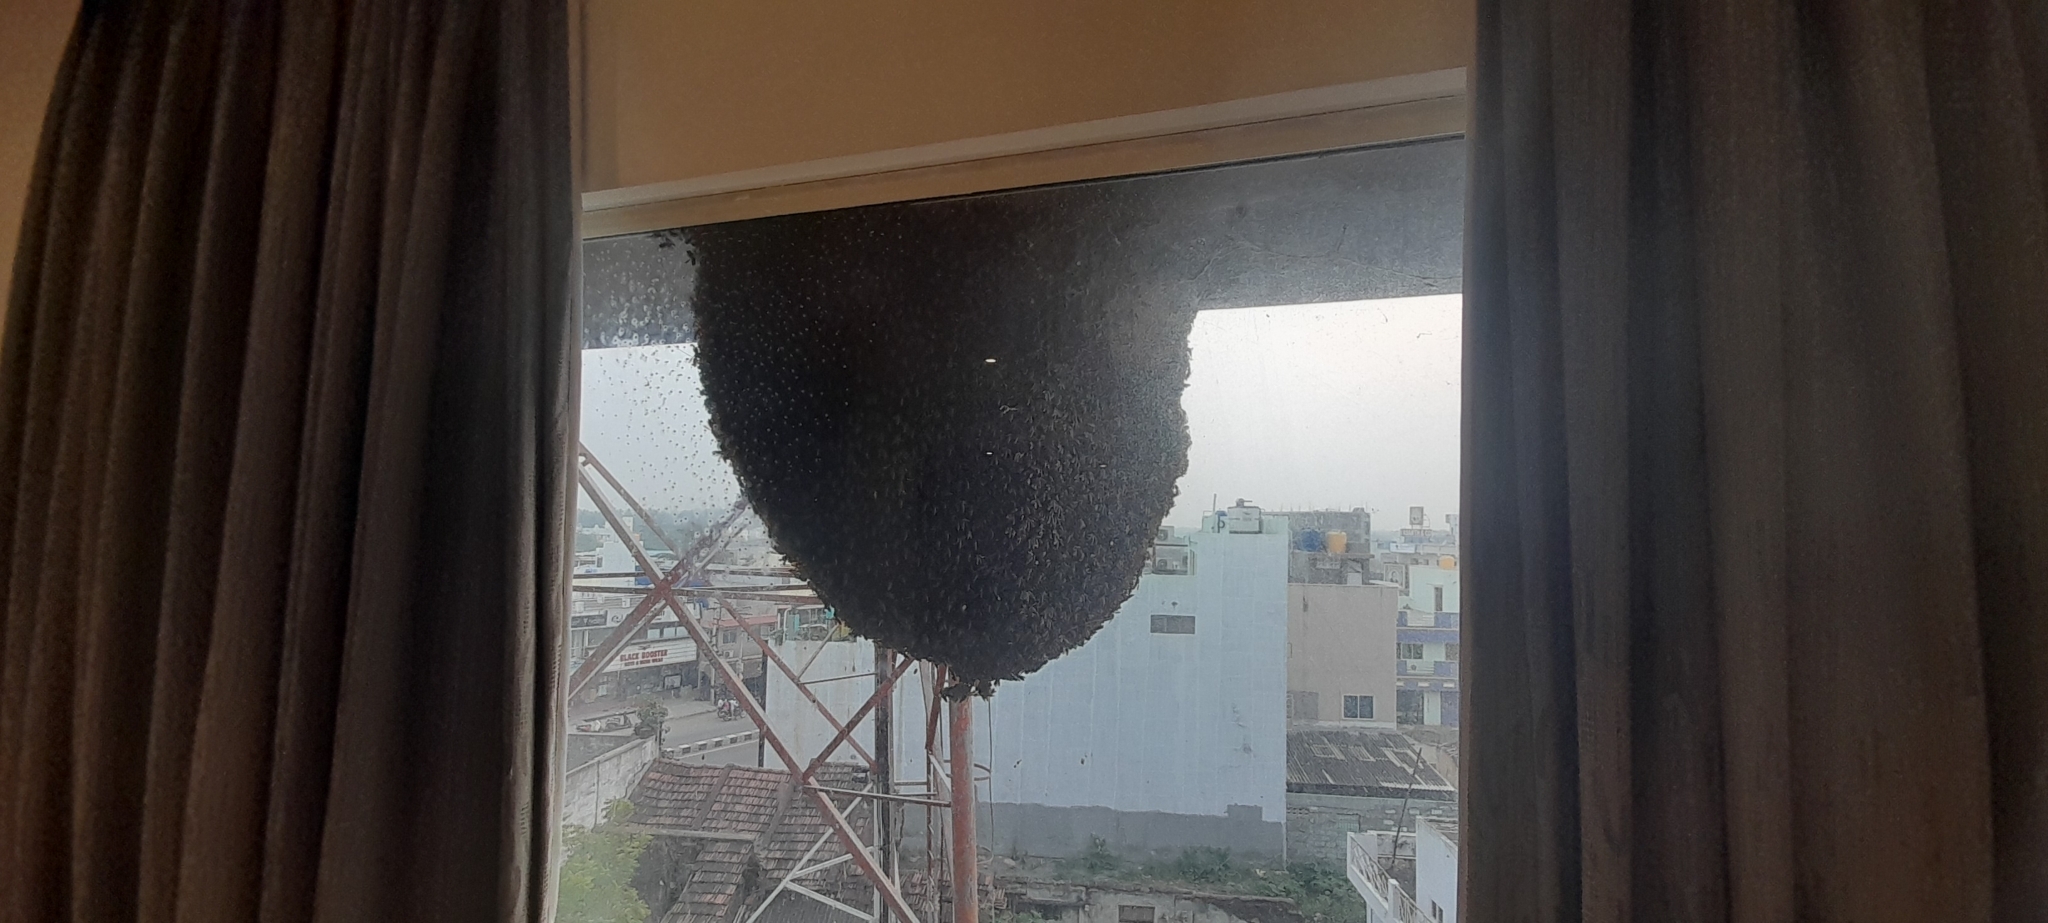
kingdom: Animalia
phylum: Arthropoda
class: Insecta
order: Hymenoptera
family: Apidae
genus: Apis
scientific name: Apis dorsata
